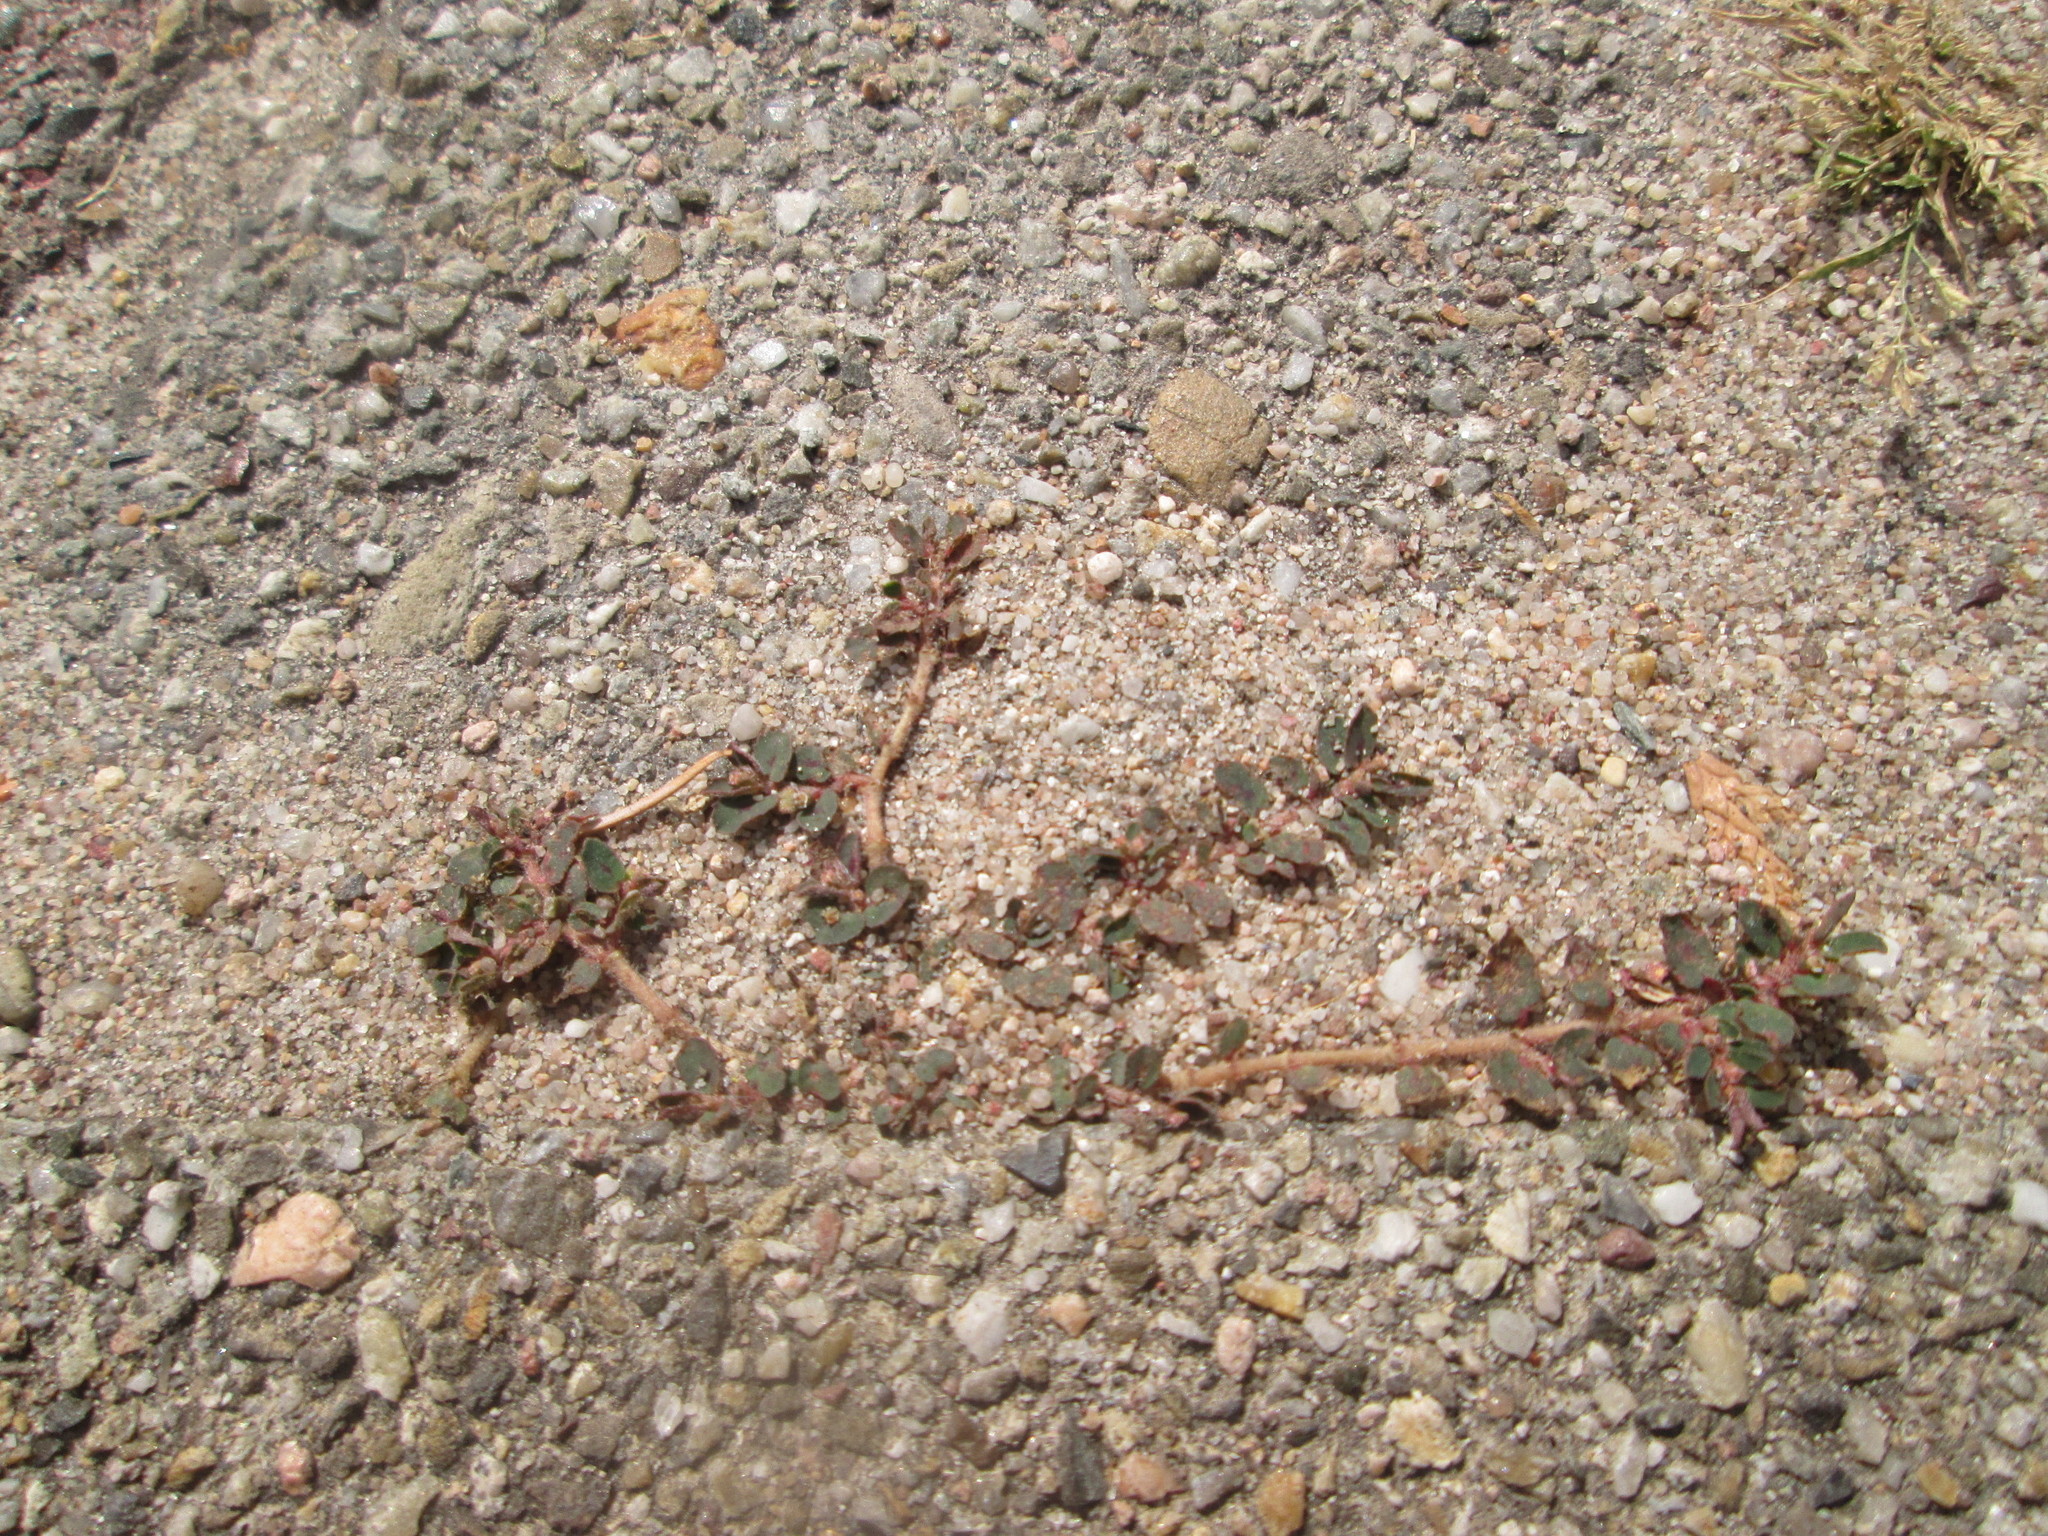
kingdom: Plantae
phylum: Tracheophyta
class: Magnoliopsida
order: Malpighiales
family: Euphorbiaceae
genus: Euphorbia
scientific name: Euphorbia maculata
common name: Spotted spurge
